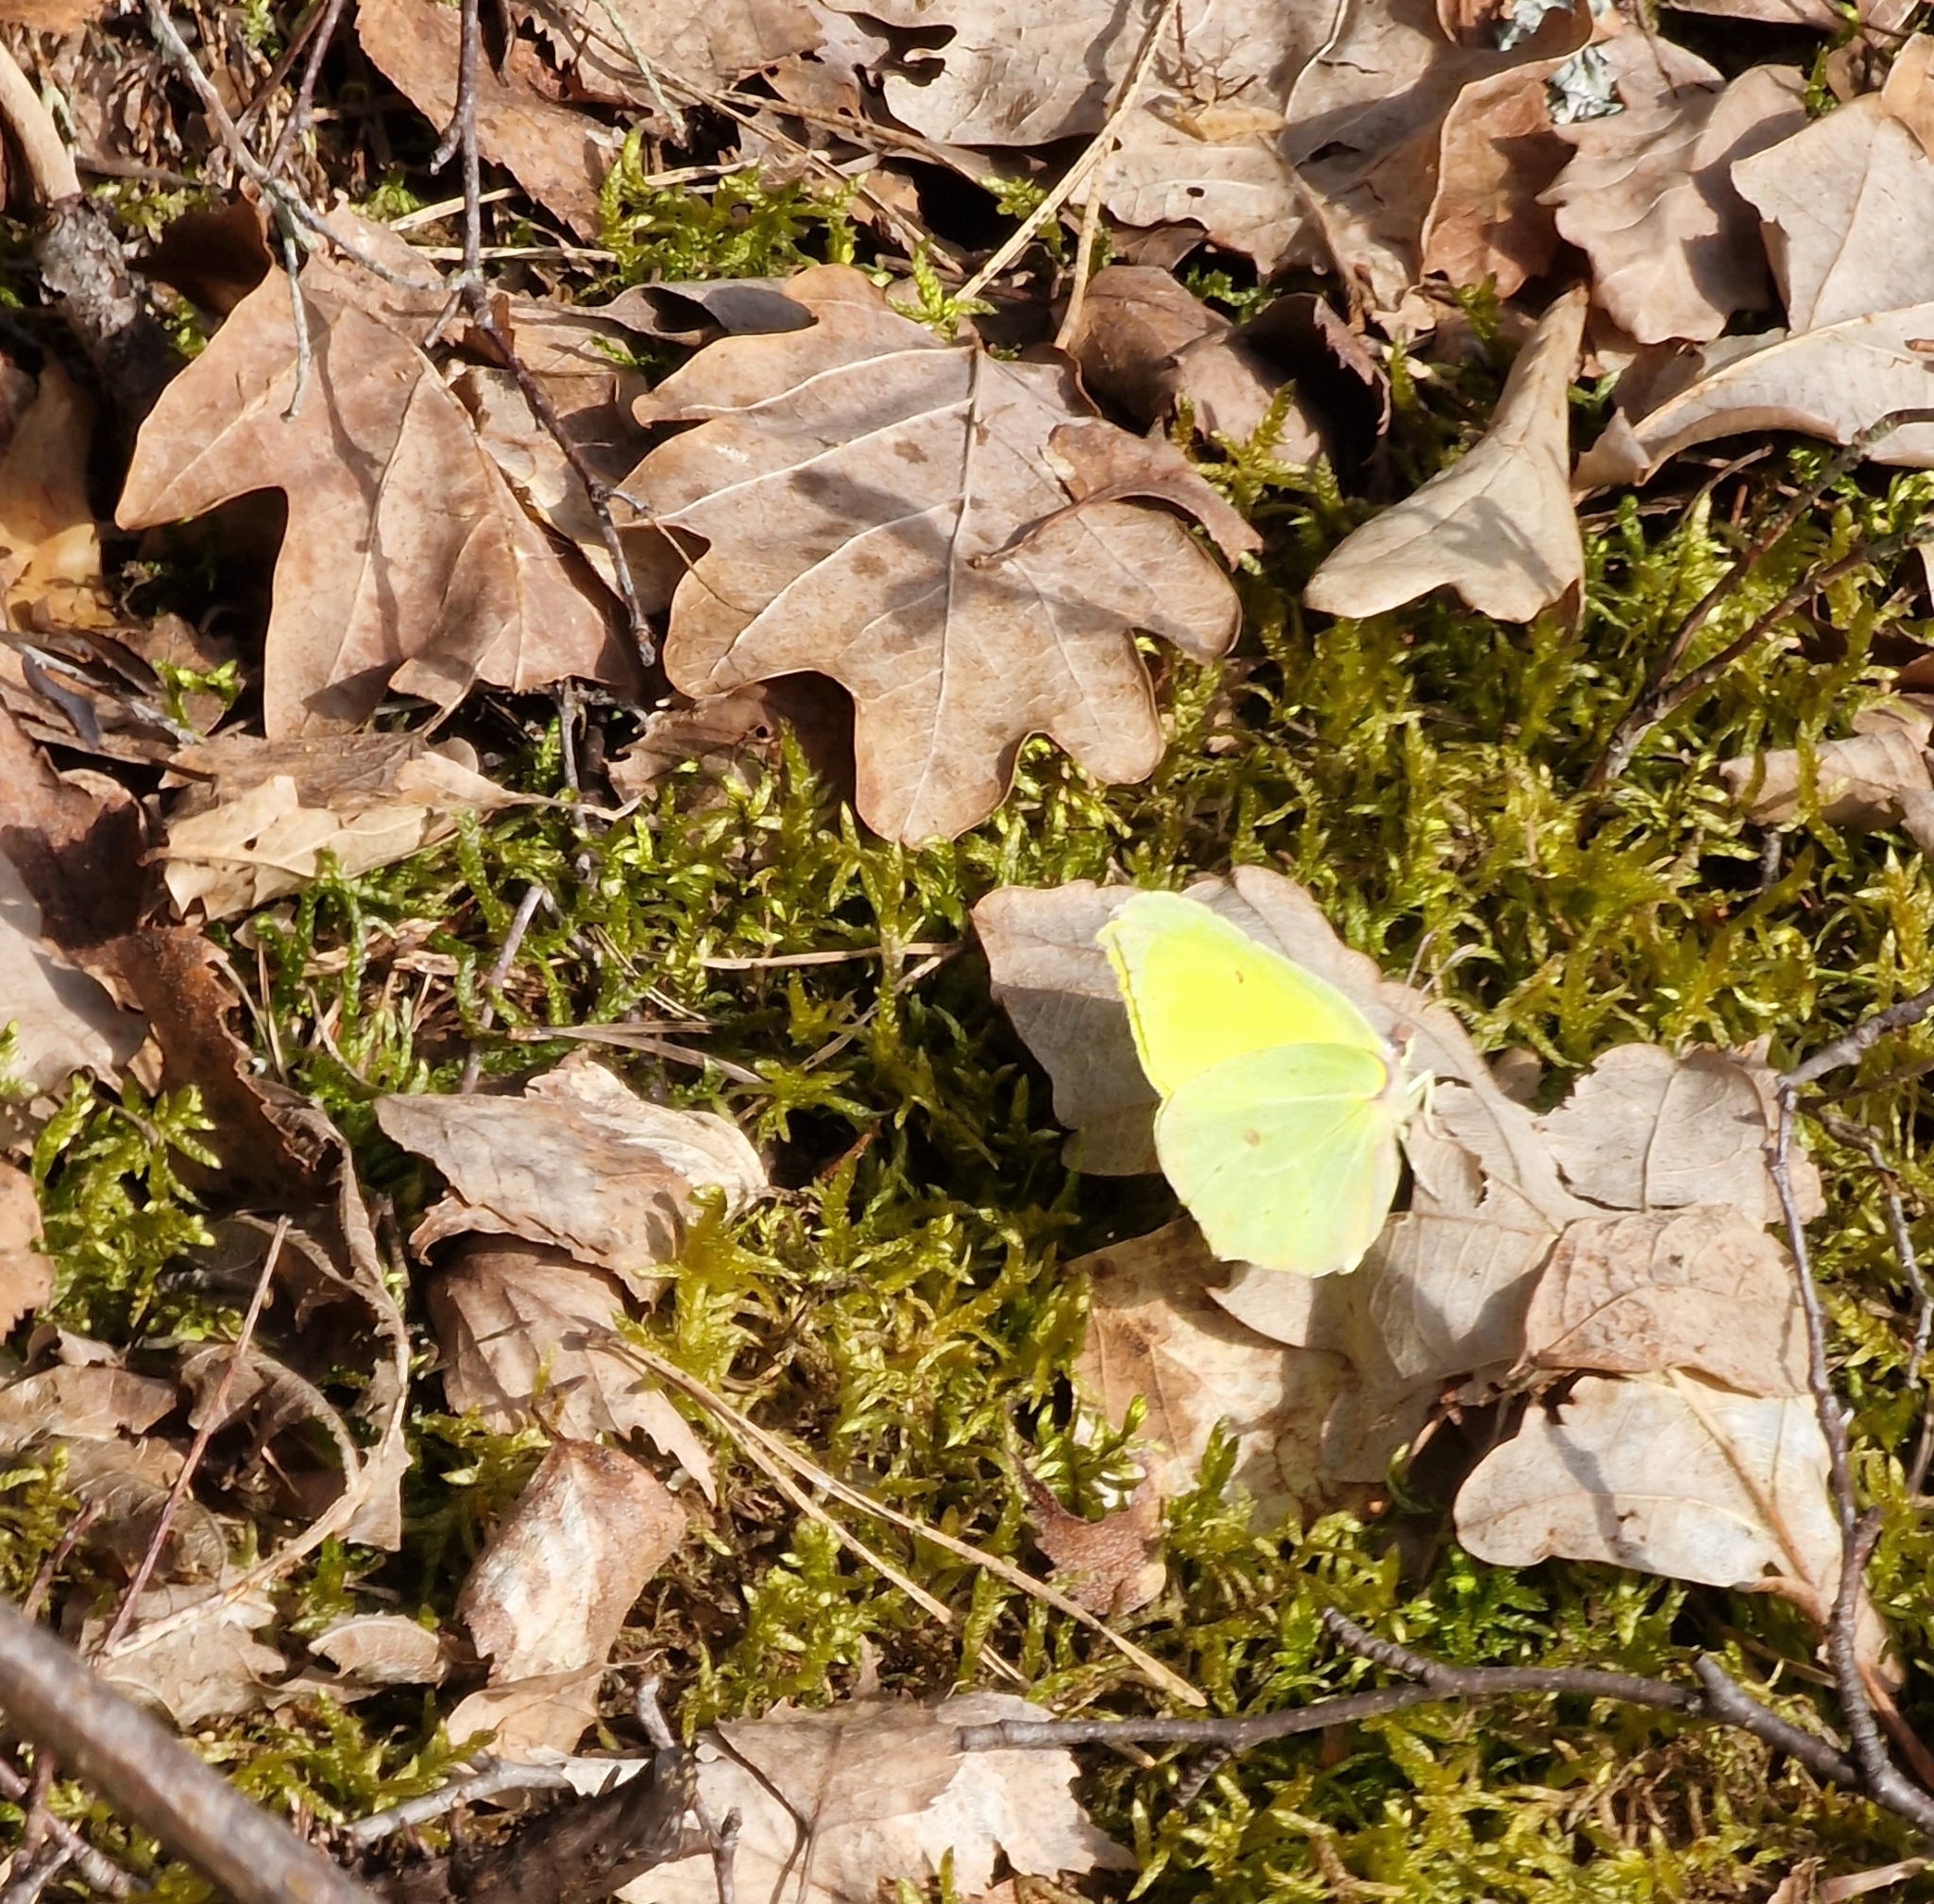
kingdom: Animalia
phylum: Arthropoda
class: Insecta
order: Lepidoptera
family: Pieridae
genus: Gonepteryx
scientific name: Gonepteryx rhamni
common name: Brimstone
